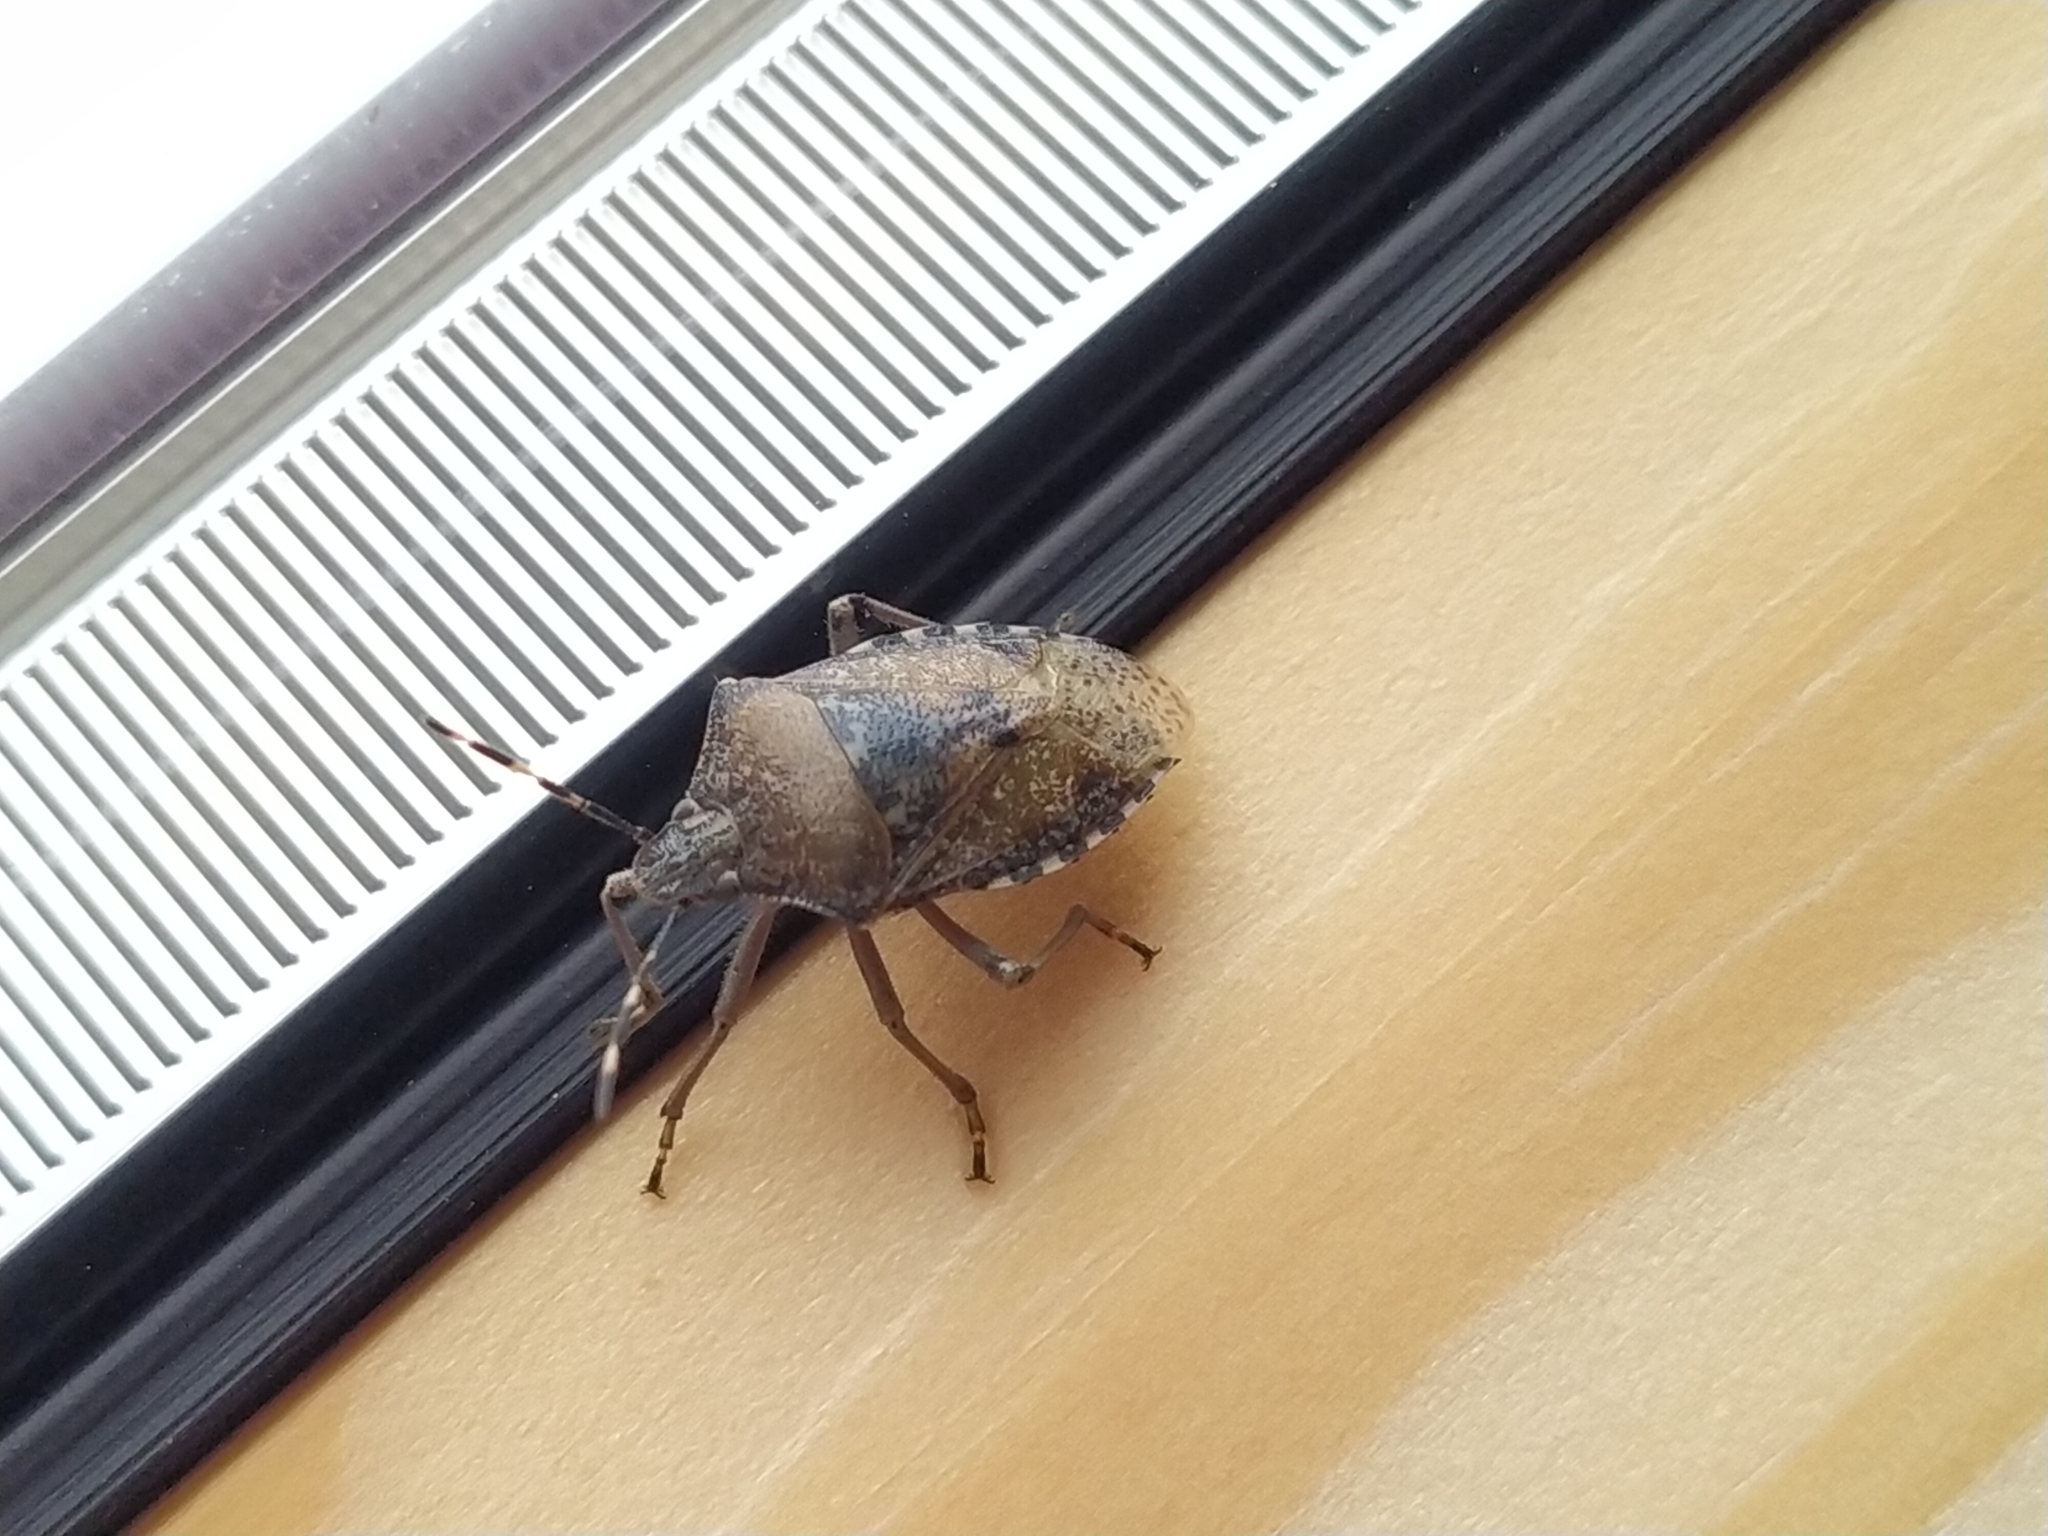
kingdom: Animalia
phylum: Arthropoda
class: Insecta
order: Hemiptera
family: Pentatomidae
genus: Rhaphigaster
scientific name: Rhaphigaster nebulosa
